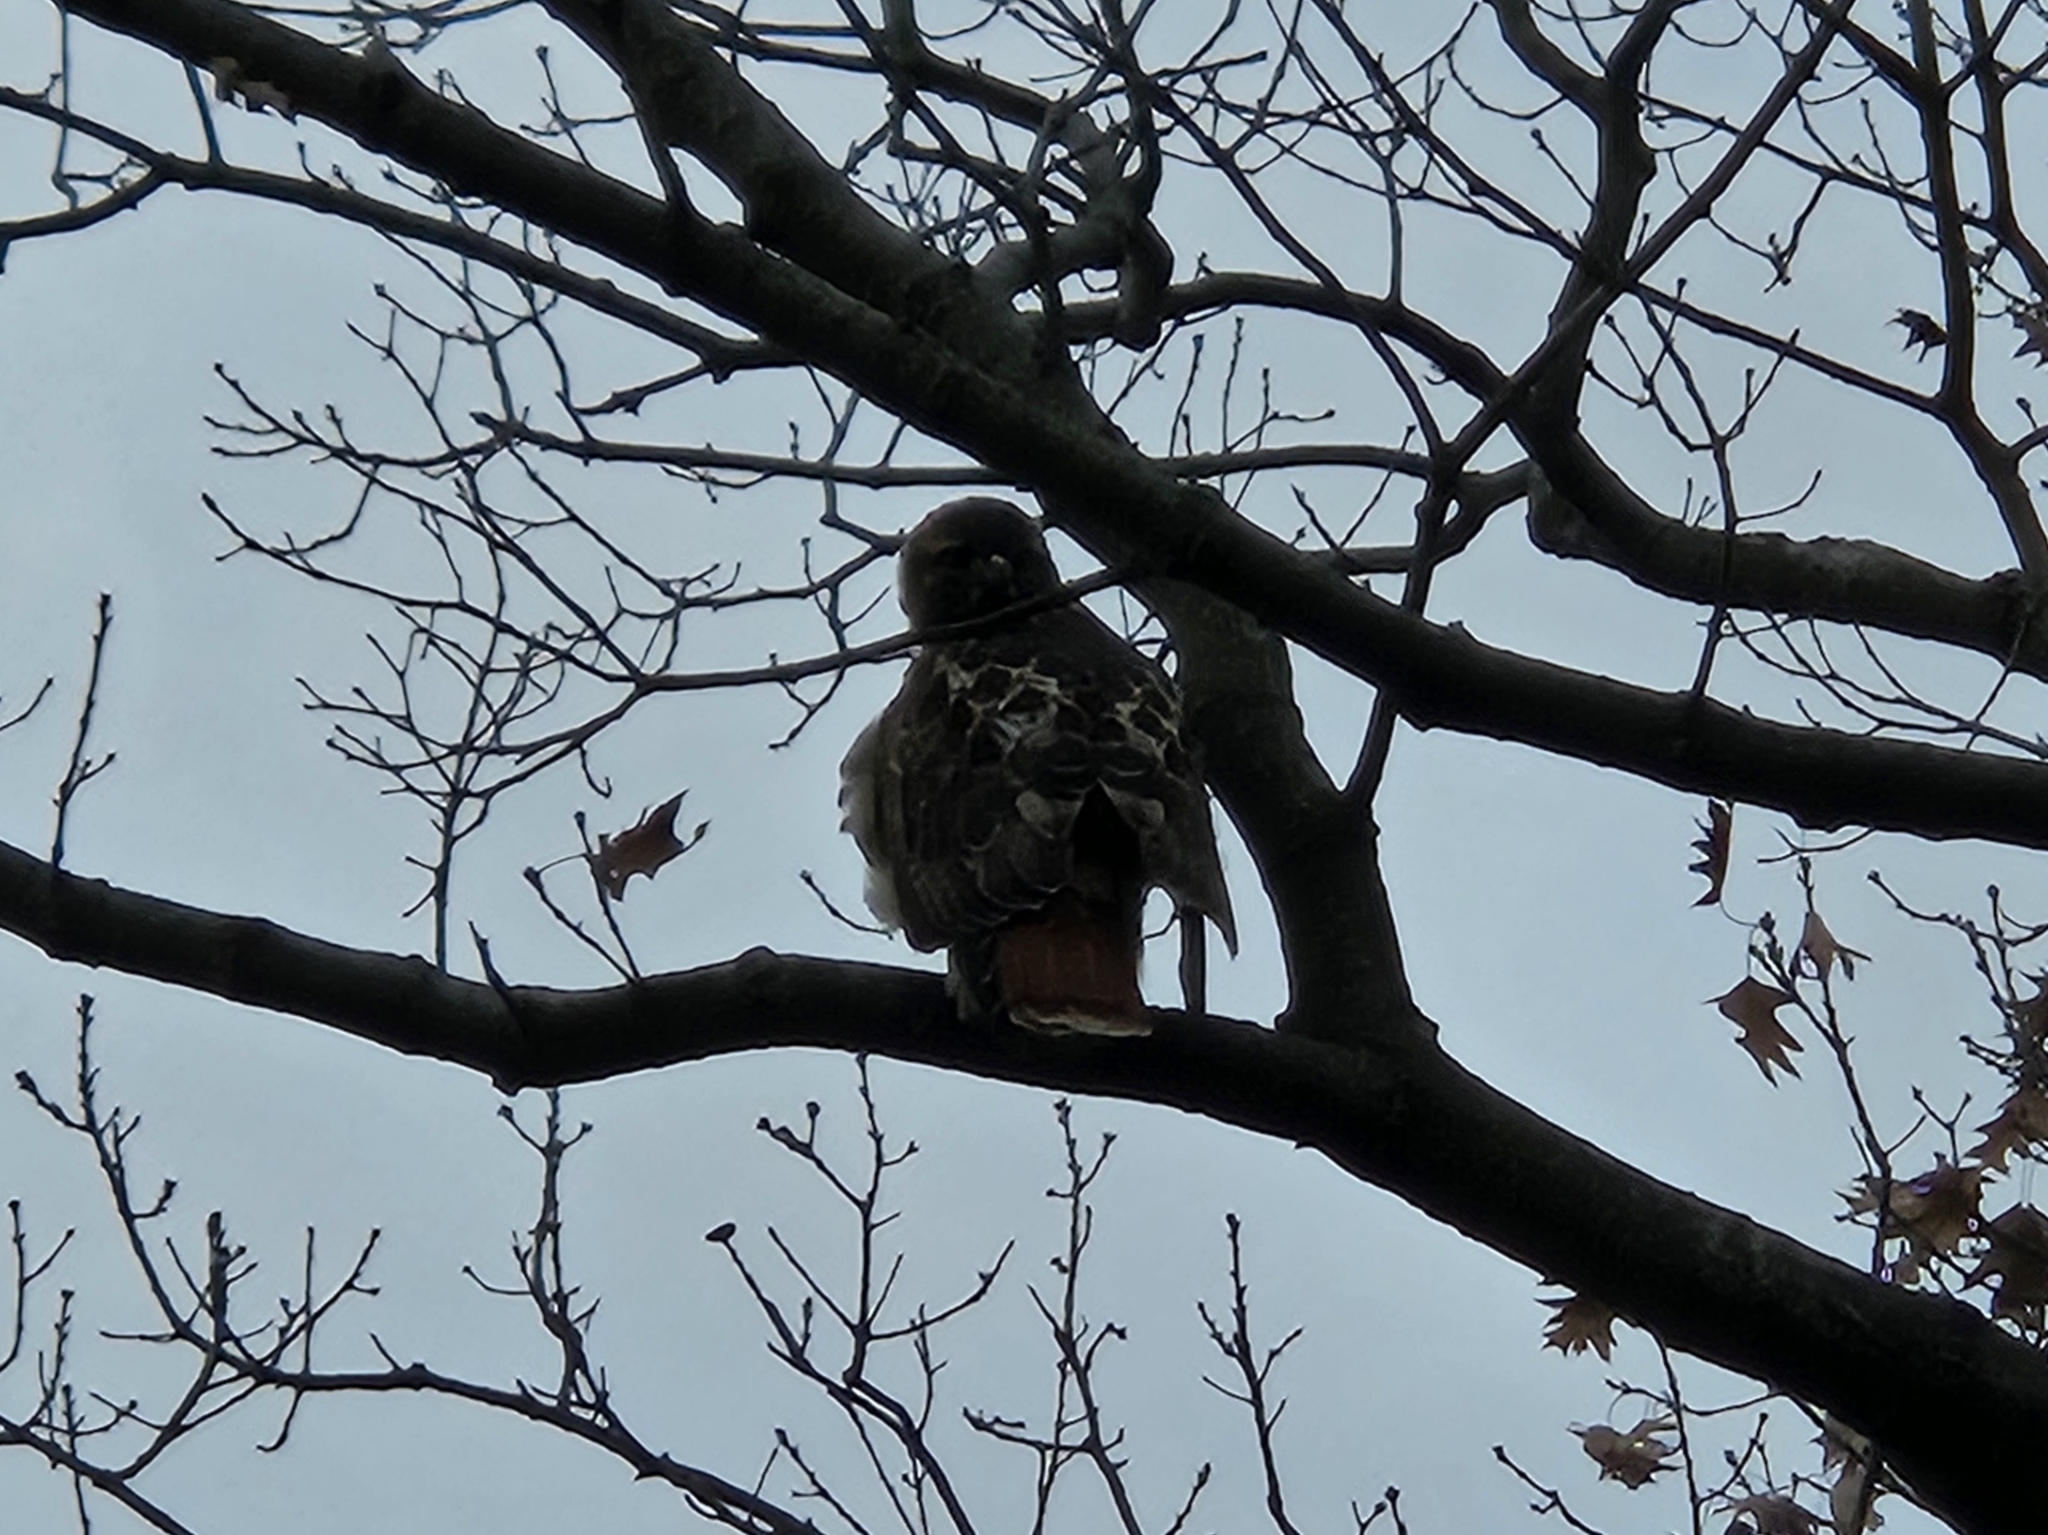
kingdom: Animalia
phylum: Chordata
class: Aves
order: Accipitriformes
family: Accipitridae
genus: Buteo
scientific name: Buteo jamaicensis
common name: Red-tailed hawk
